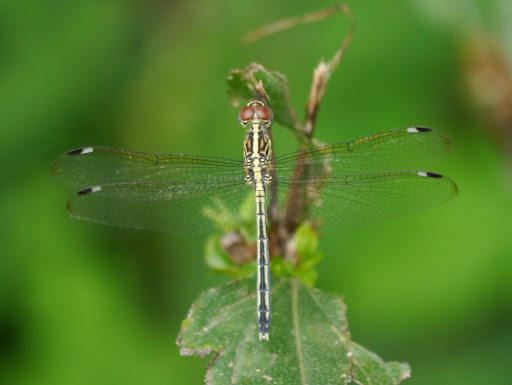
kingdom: Animalia
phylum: Arthropoda
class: Insecta
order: Odonata
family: Libellulidae
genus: Hemistigma
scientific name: Hemistigma albipunctum
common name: African pied-spot
